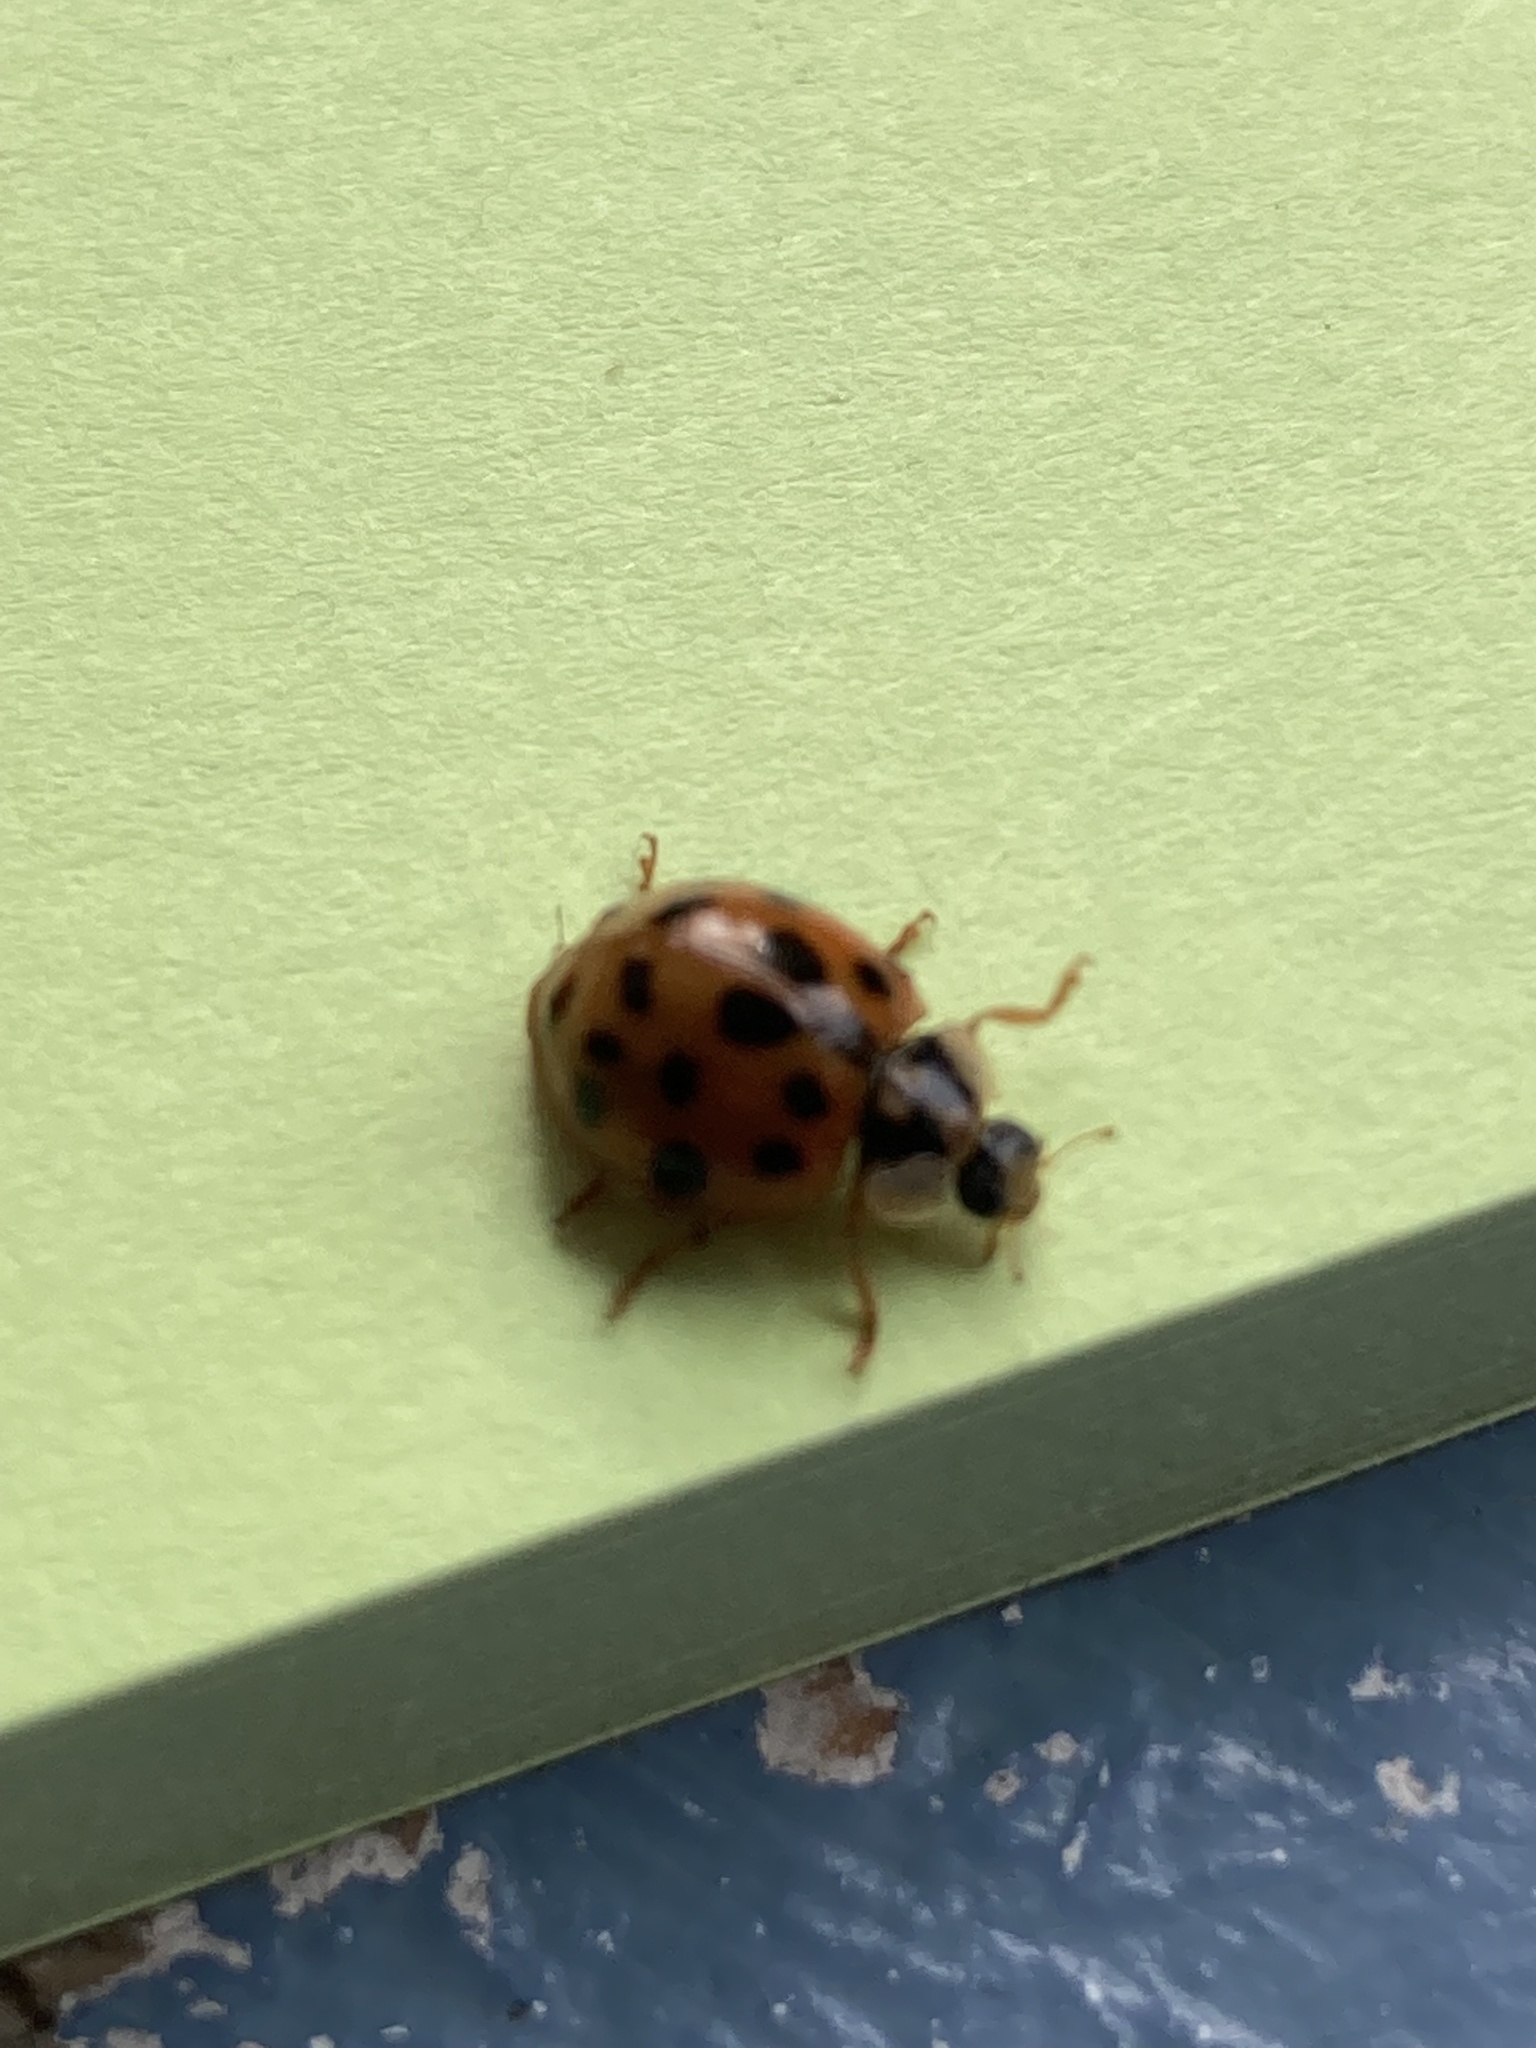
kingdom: Animalia
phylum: Arthropoda
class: Insecta
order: Coleoptera
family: Coccinellidae
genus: Harmonia
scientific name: Harmonia axyridis
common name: Harlequin ladybird
